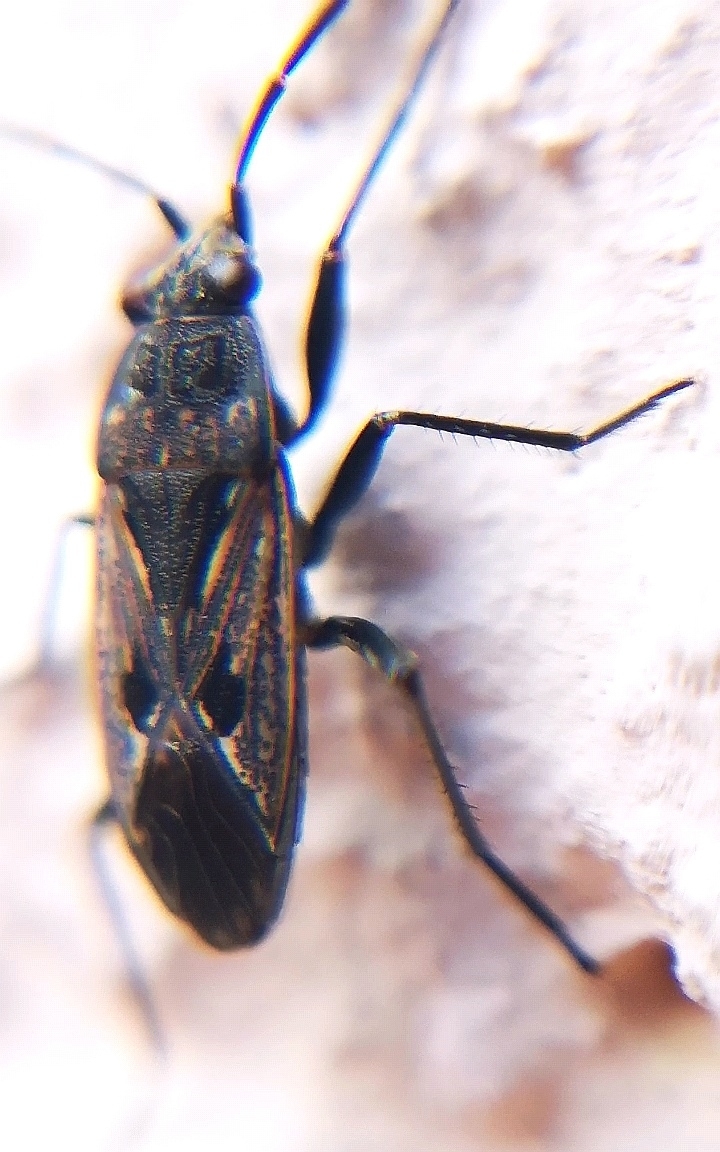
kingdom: Animalia
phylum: Arthropoda
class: Insecta
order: Hemiptera
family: Rhyparochromidae
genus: Rhyparochromus
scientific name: Rhyparochromus pini
